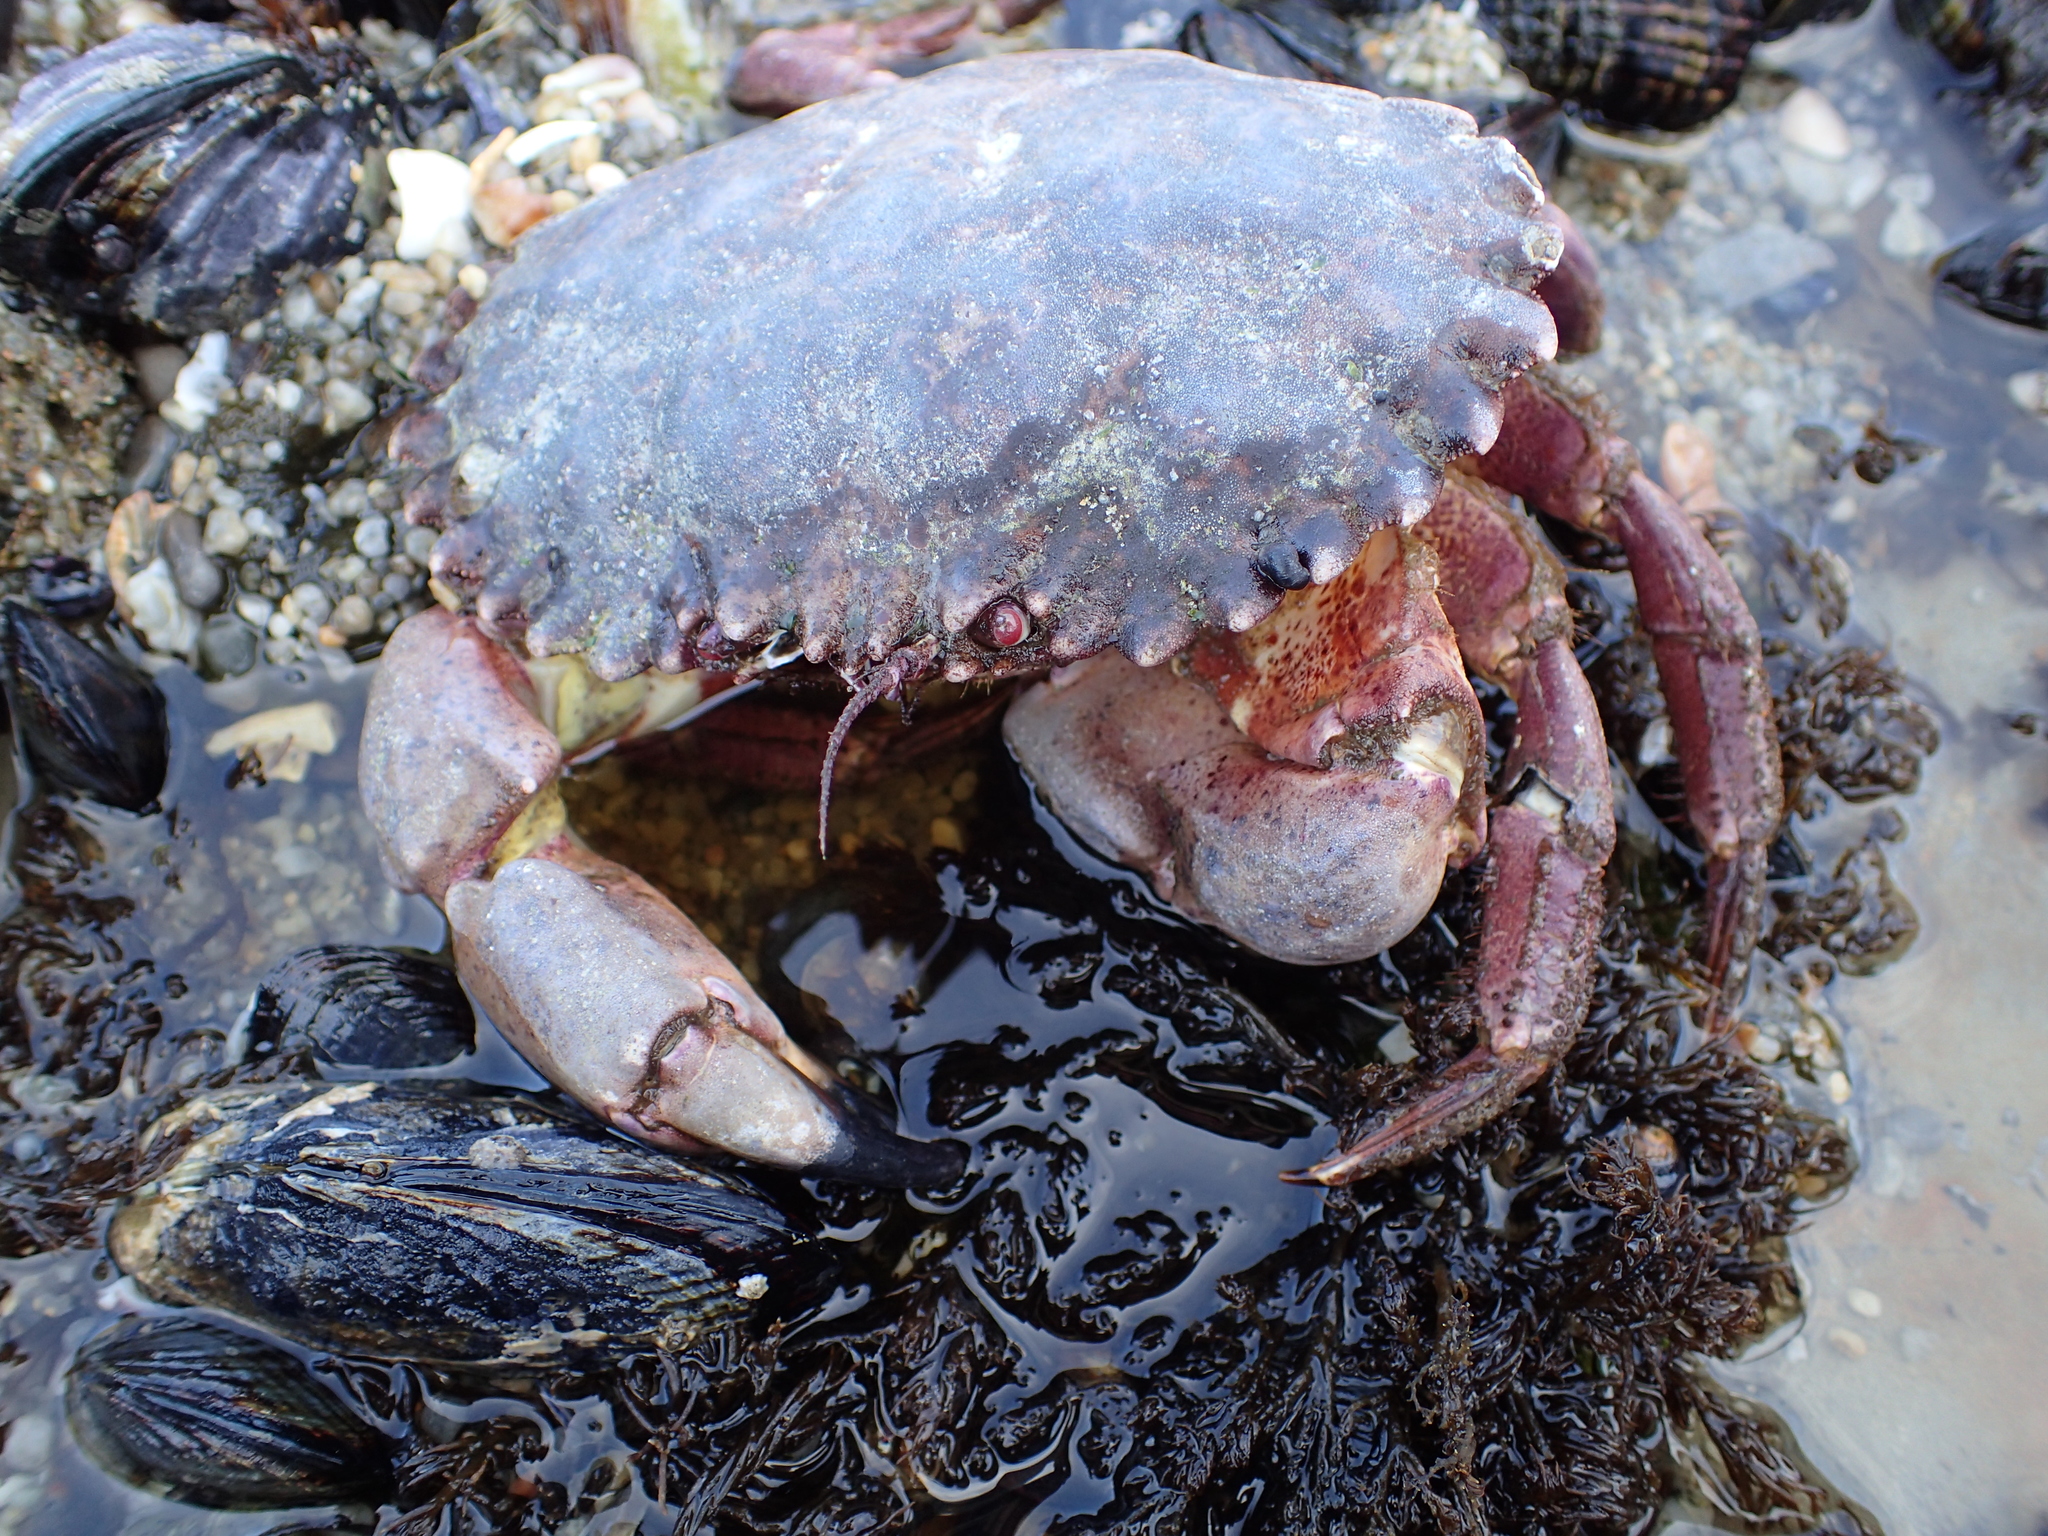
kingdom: Animalia
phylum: Arthropoda
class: Malacostraca
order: Decapoda
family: Cancridae
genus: Romaleon
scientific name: Romaleon antennarium
